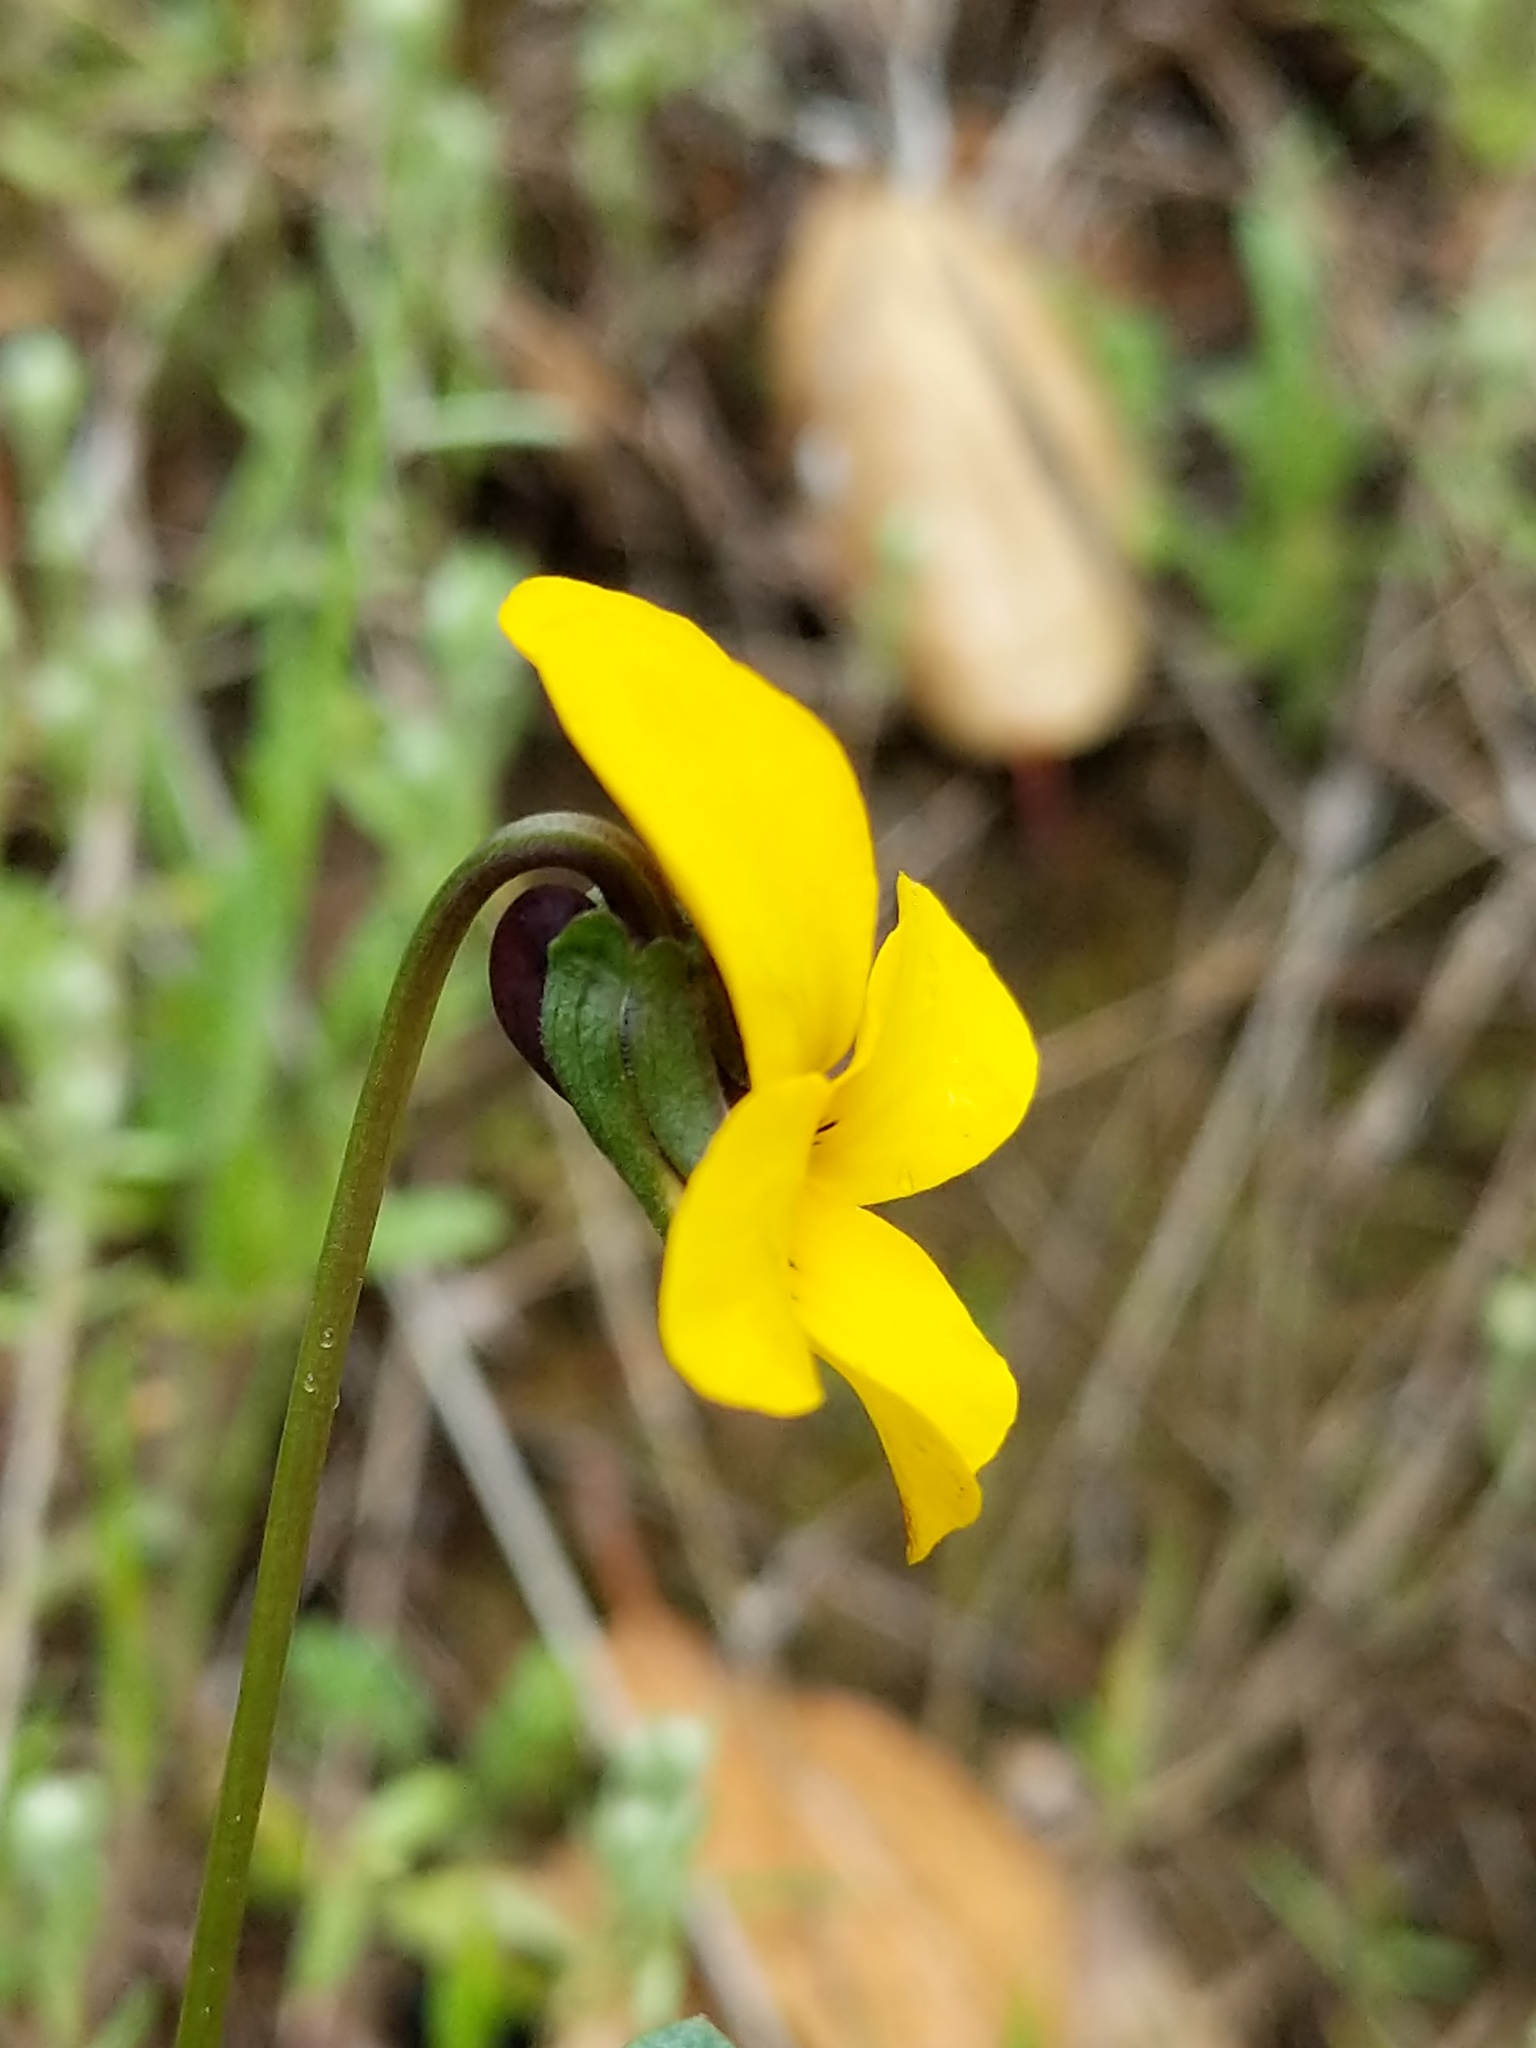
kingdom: Plantae
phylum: Tracheophyta
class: Magnoliopsida
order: Malpighiales
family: Violaceae
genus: Viola
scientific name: Viola pedunculata
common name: California golden violet
